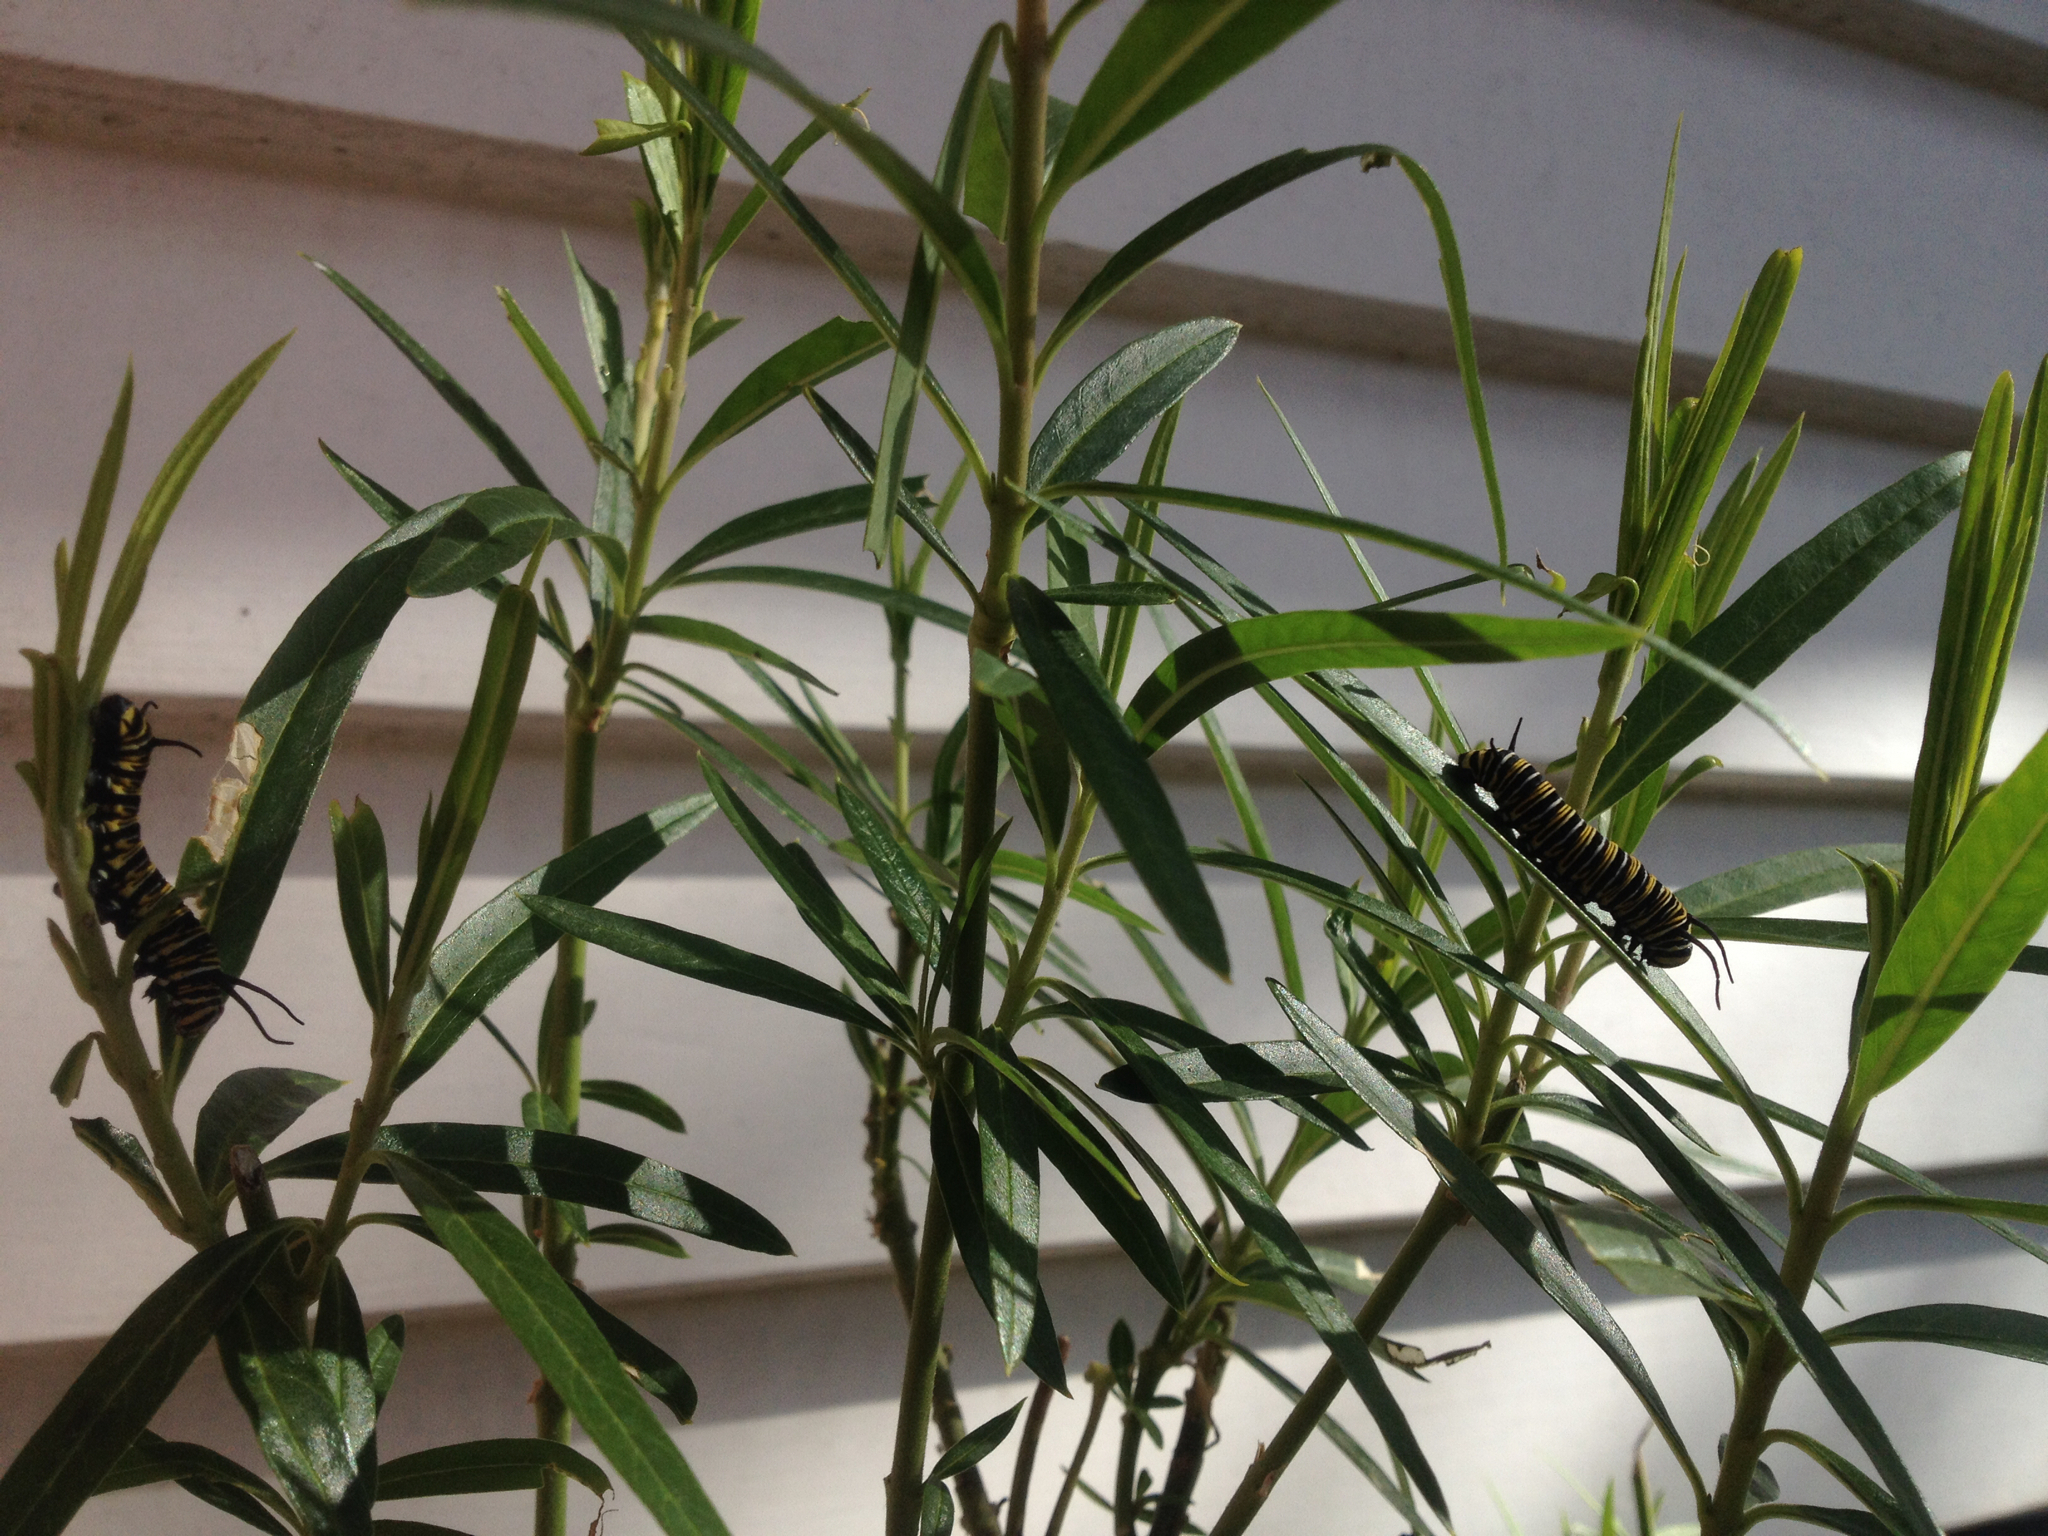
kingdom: Animalia
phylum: Arthropoda
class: Insecta
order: Lepidoptera
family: Nymphalidae
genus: Danaus
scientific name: Danaus plexippus
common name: Monarch
